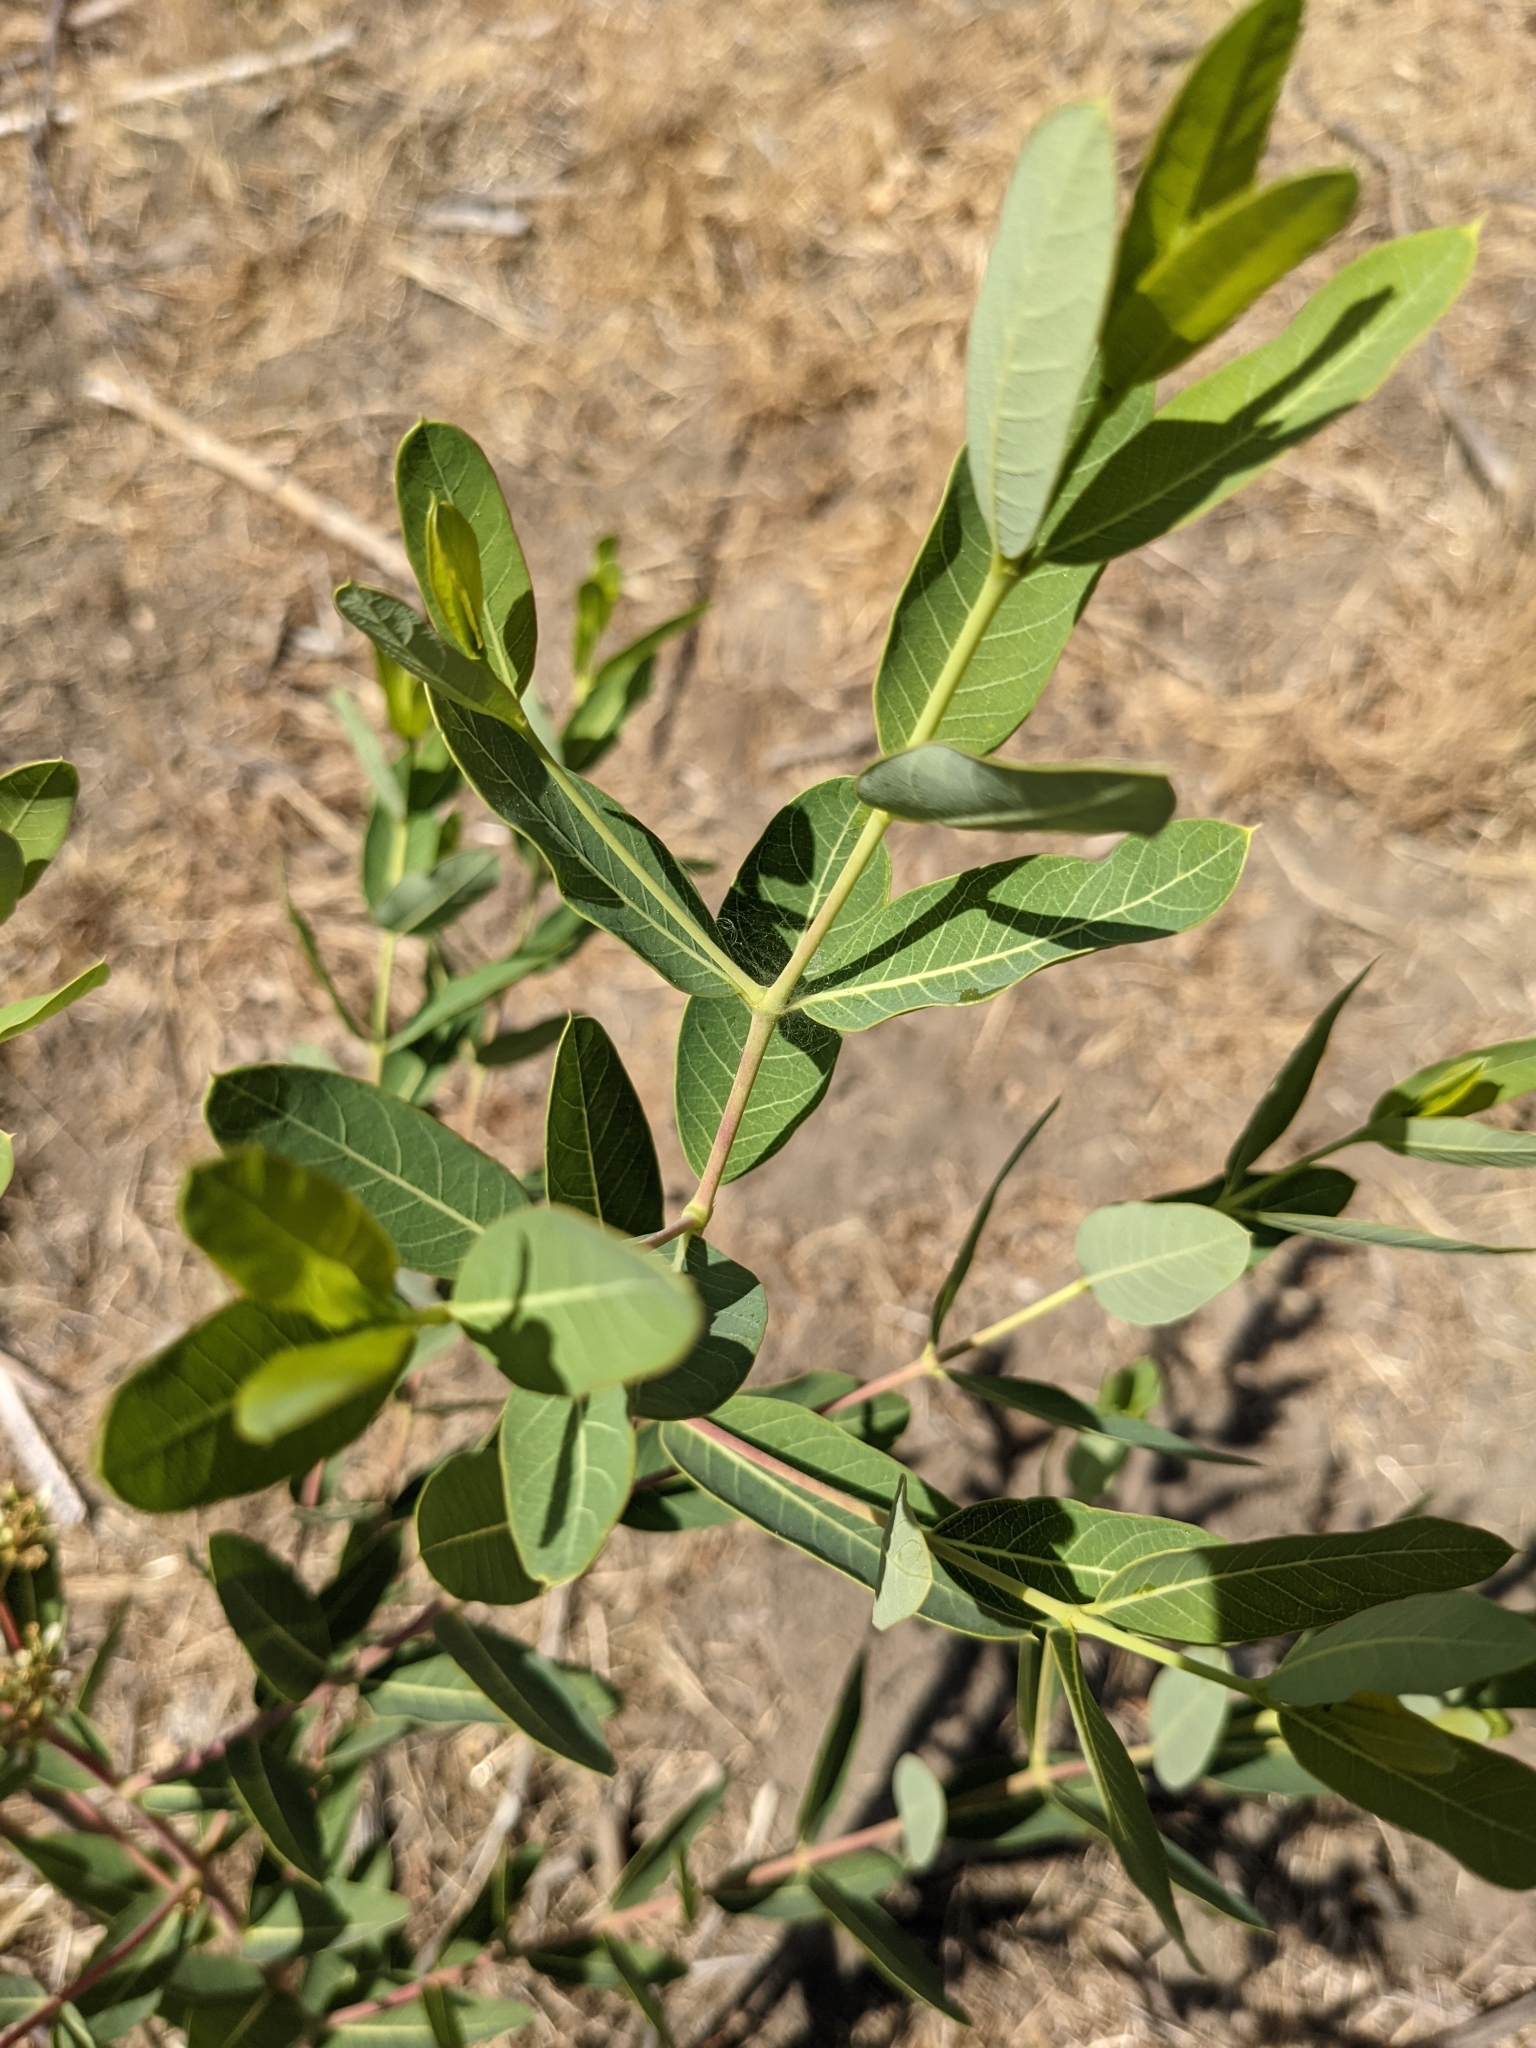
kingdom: Plantae
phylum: Tracheophyta
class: Magnoliopsida
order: Gentianales
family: Apocynaceae
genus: Apocynum
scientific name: Apocynum cannabinum
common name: Hemp dogbane
